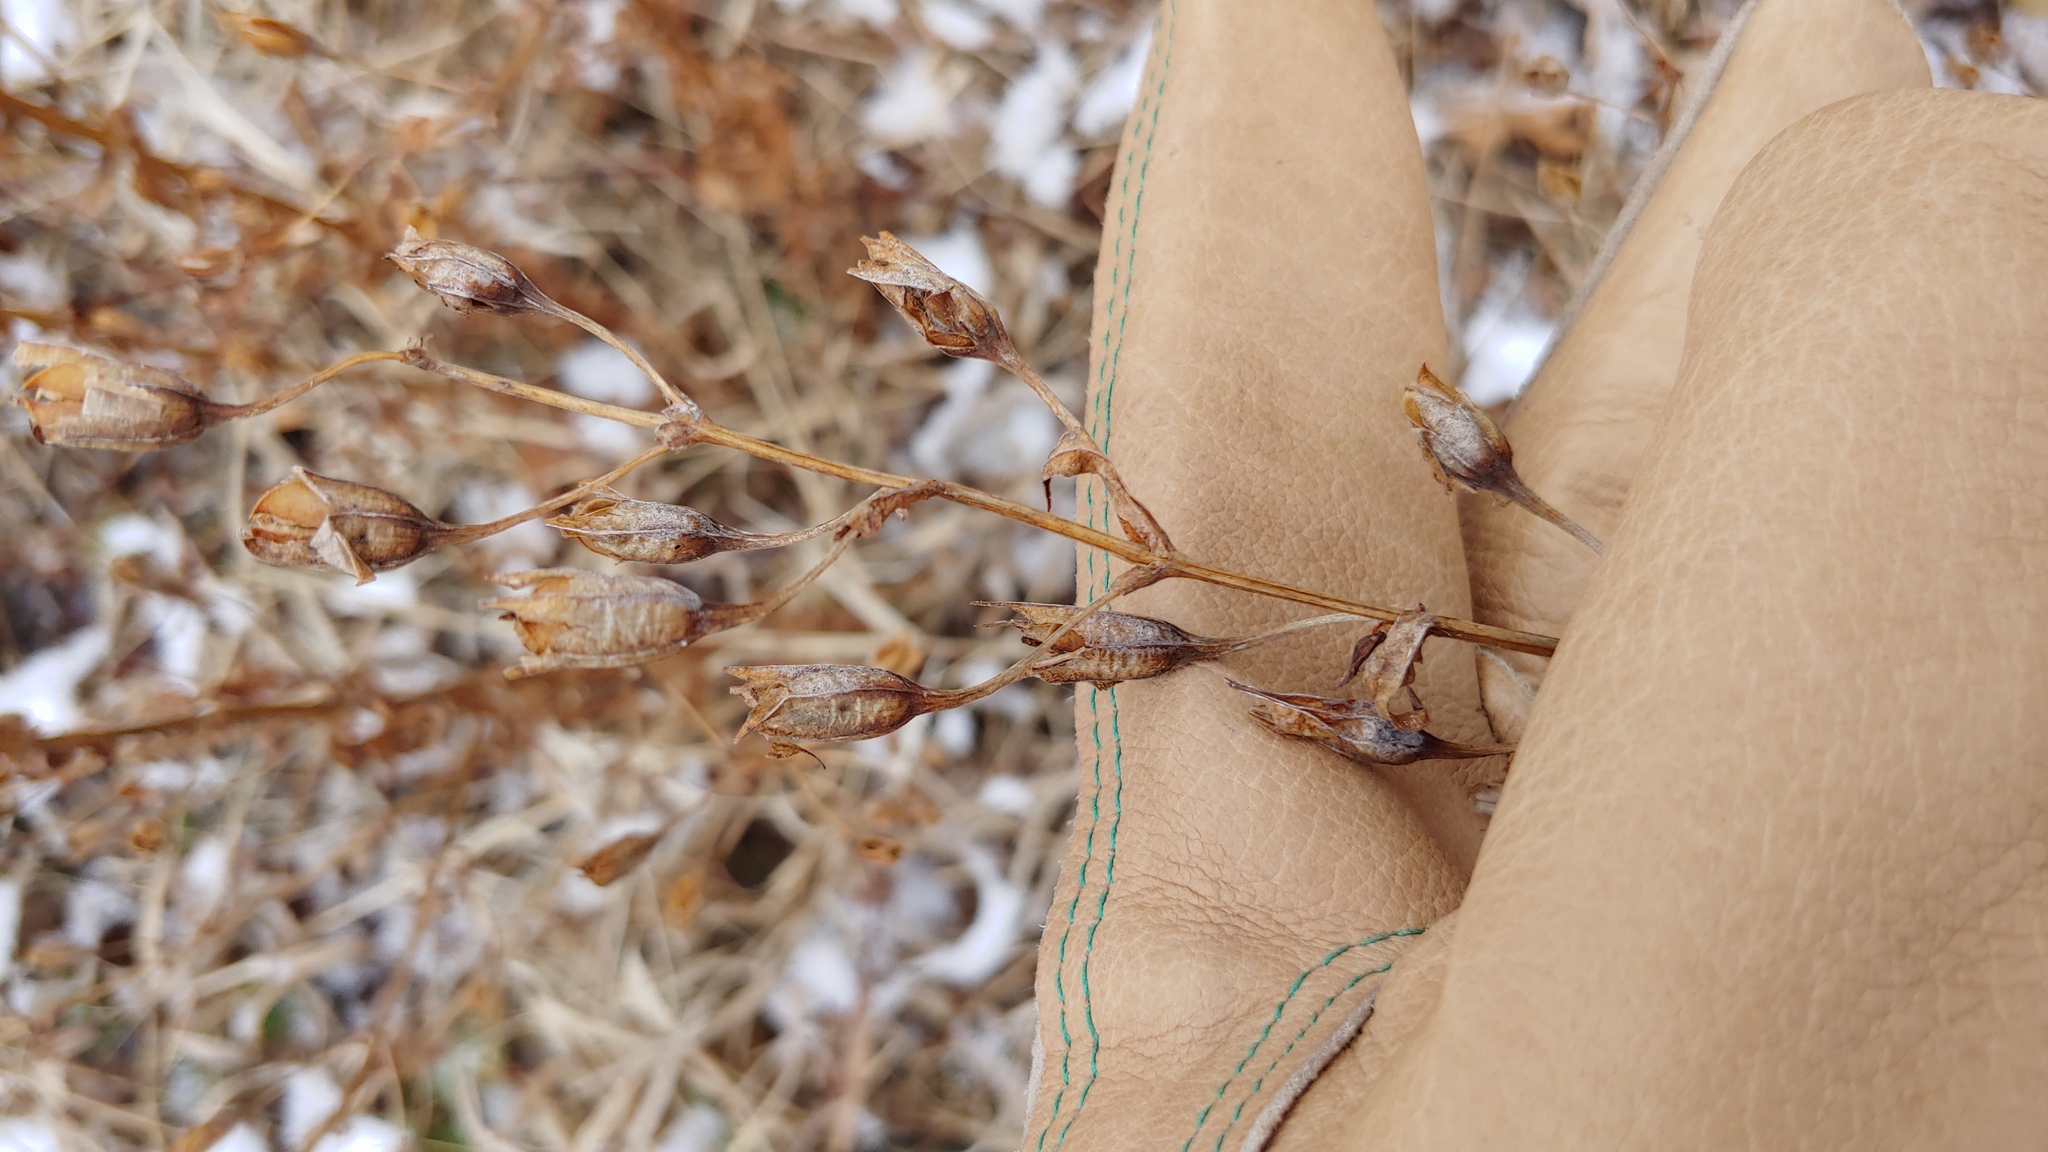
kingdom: Plantae
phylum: Tracheophyta
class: Magnoliopsida
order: Lamiales
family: Phrymaceae
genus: Mimulus
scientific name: Mimulus ringens
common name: Allegheny monkeyflower
